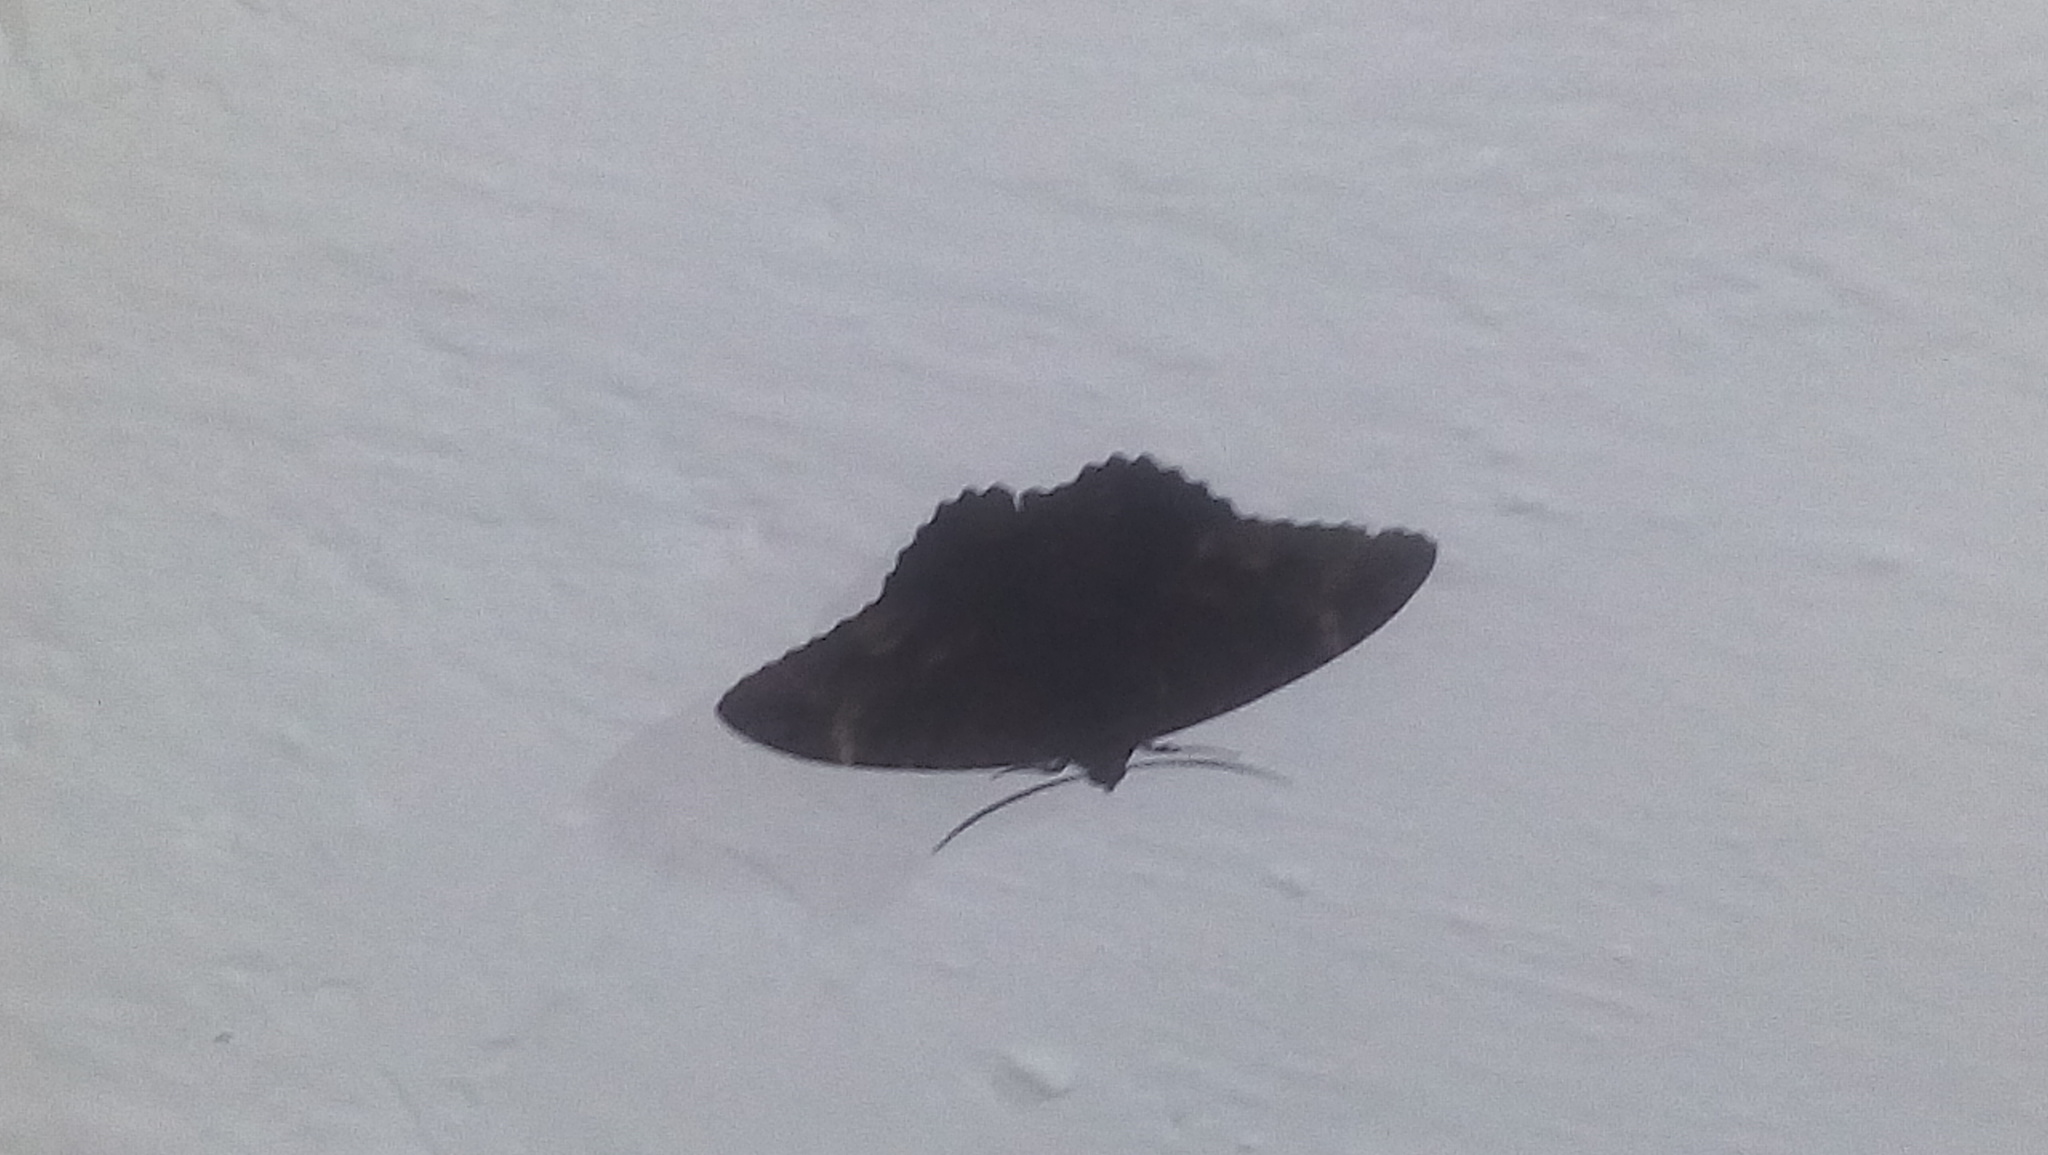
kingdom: Animalia
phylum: Arthropoda
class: Insecta
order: Lepidoptera
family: Erebidae
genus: Ascalapha
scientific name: Ascalapha odorata
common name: Black witch
